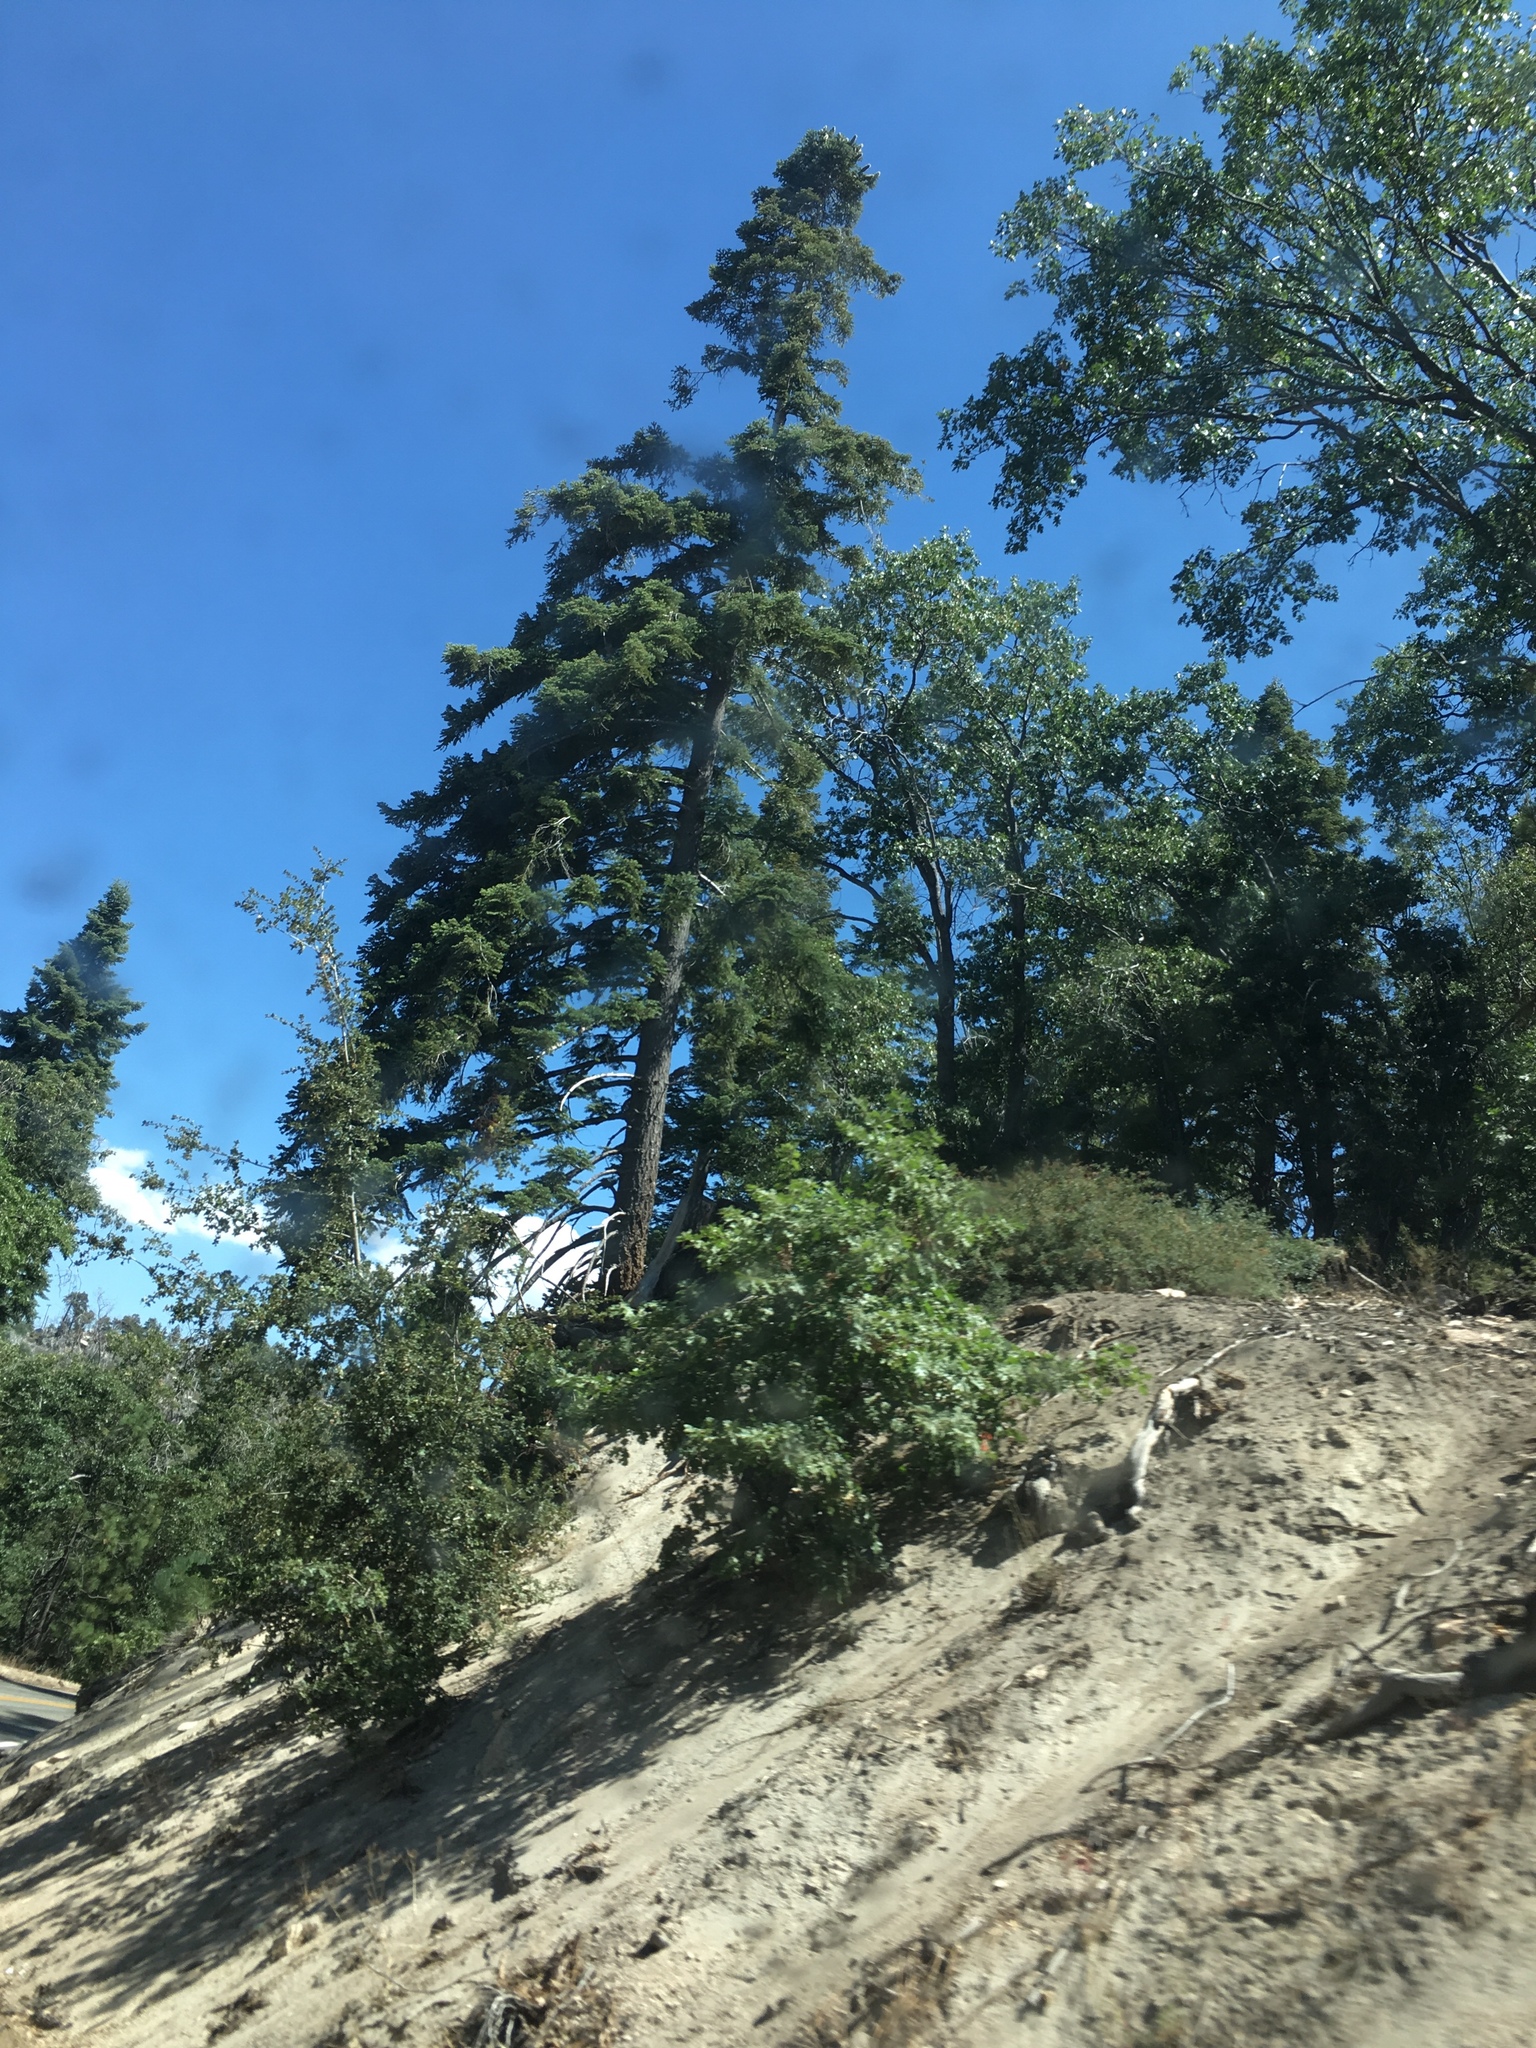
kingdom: Plantae
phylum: Tracheophyta
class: Magnoliopsida
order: Fagales
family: Fagaceae
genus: Quercus
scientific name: Quercus kelloggii
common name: California black oak
